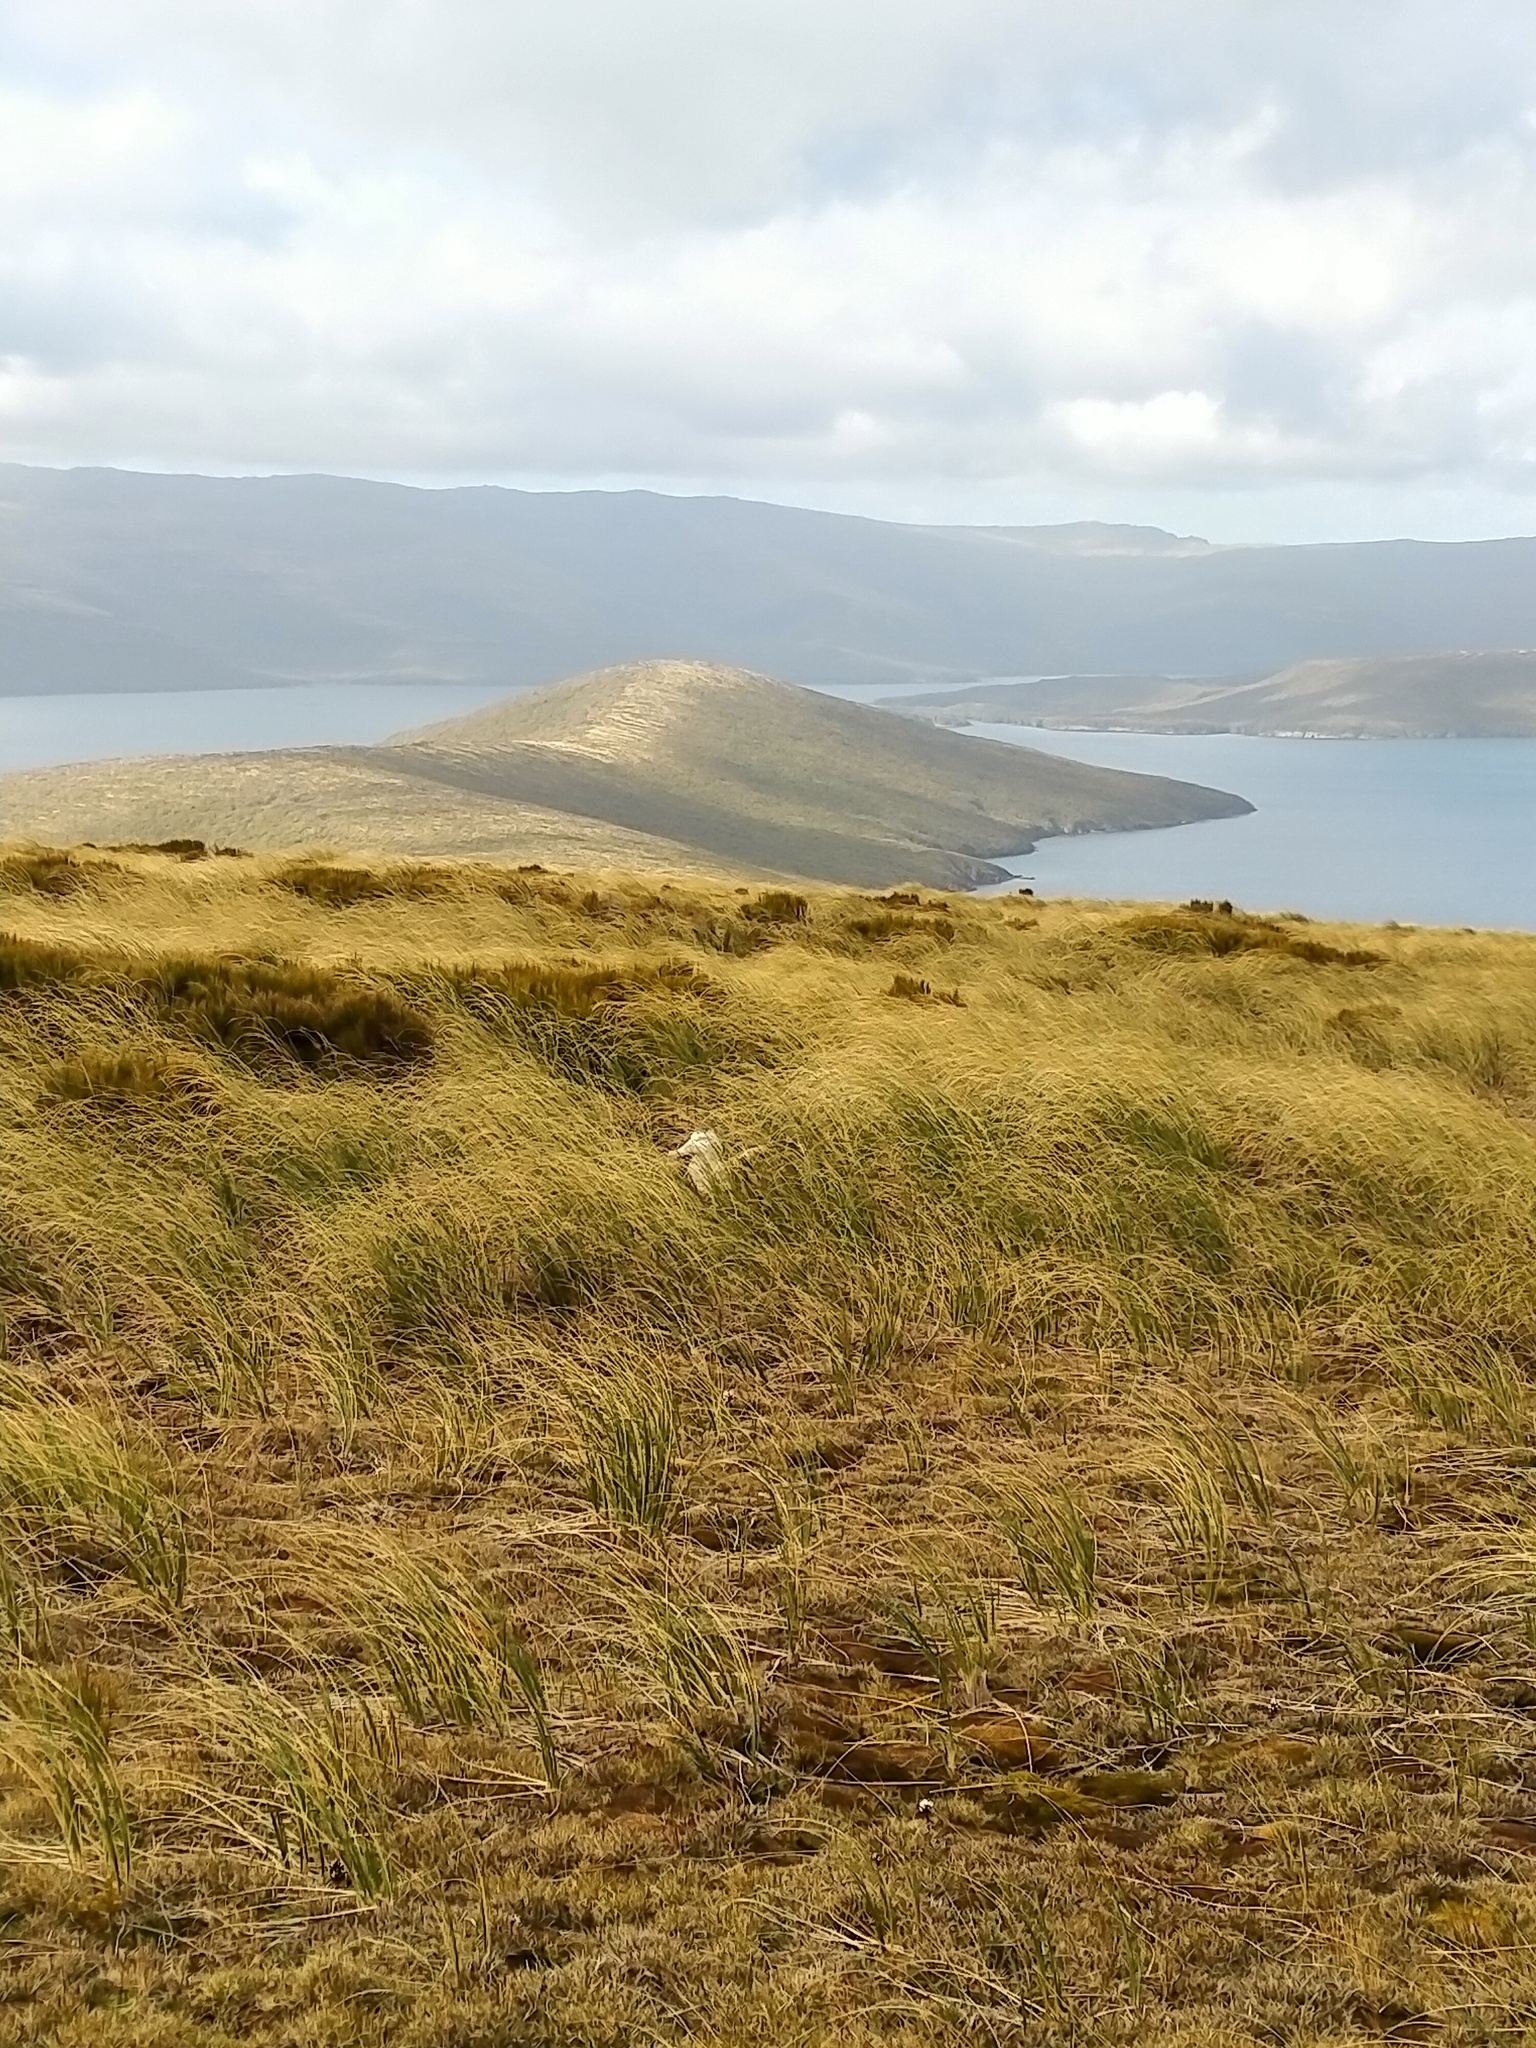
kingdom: Animalia
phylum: Chordata
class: Aves
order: Procellariiformes
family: Diomedeidae
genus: Diomedea
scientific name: Diomedea antipodensis
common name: Antipodean albatross
